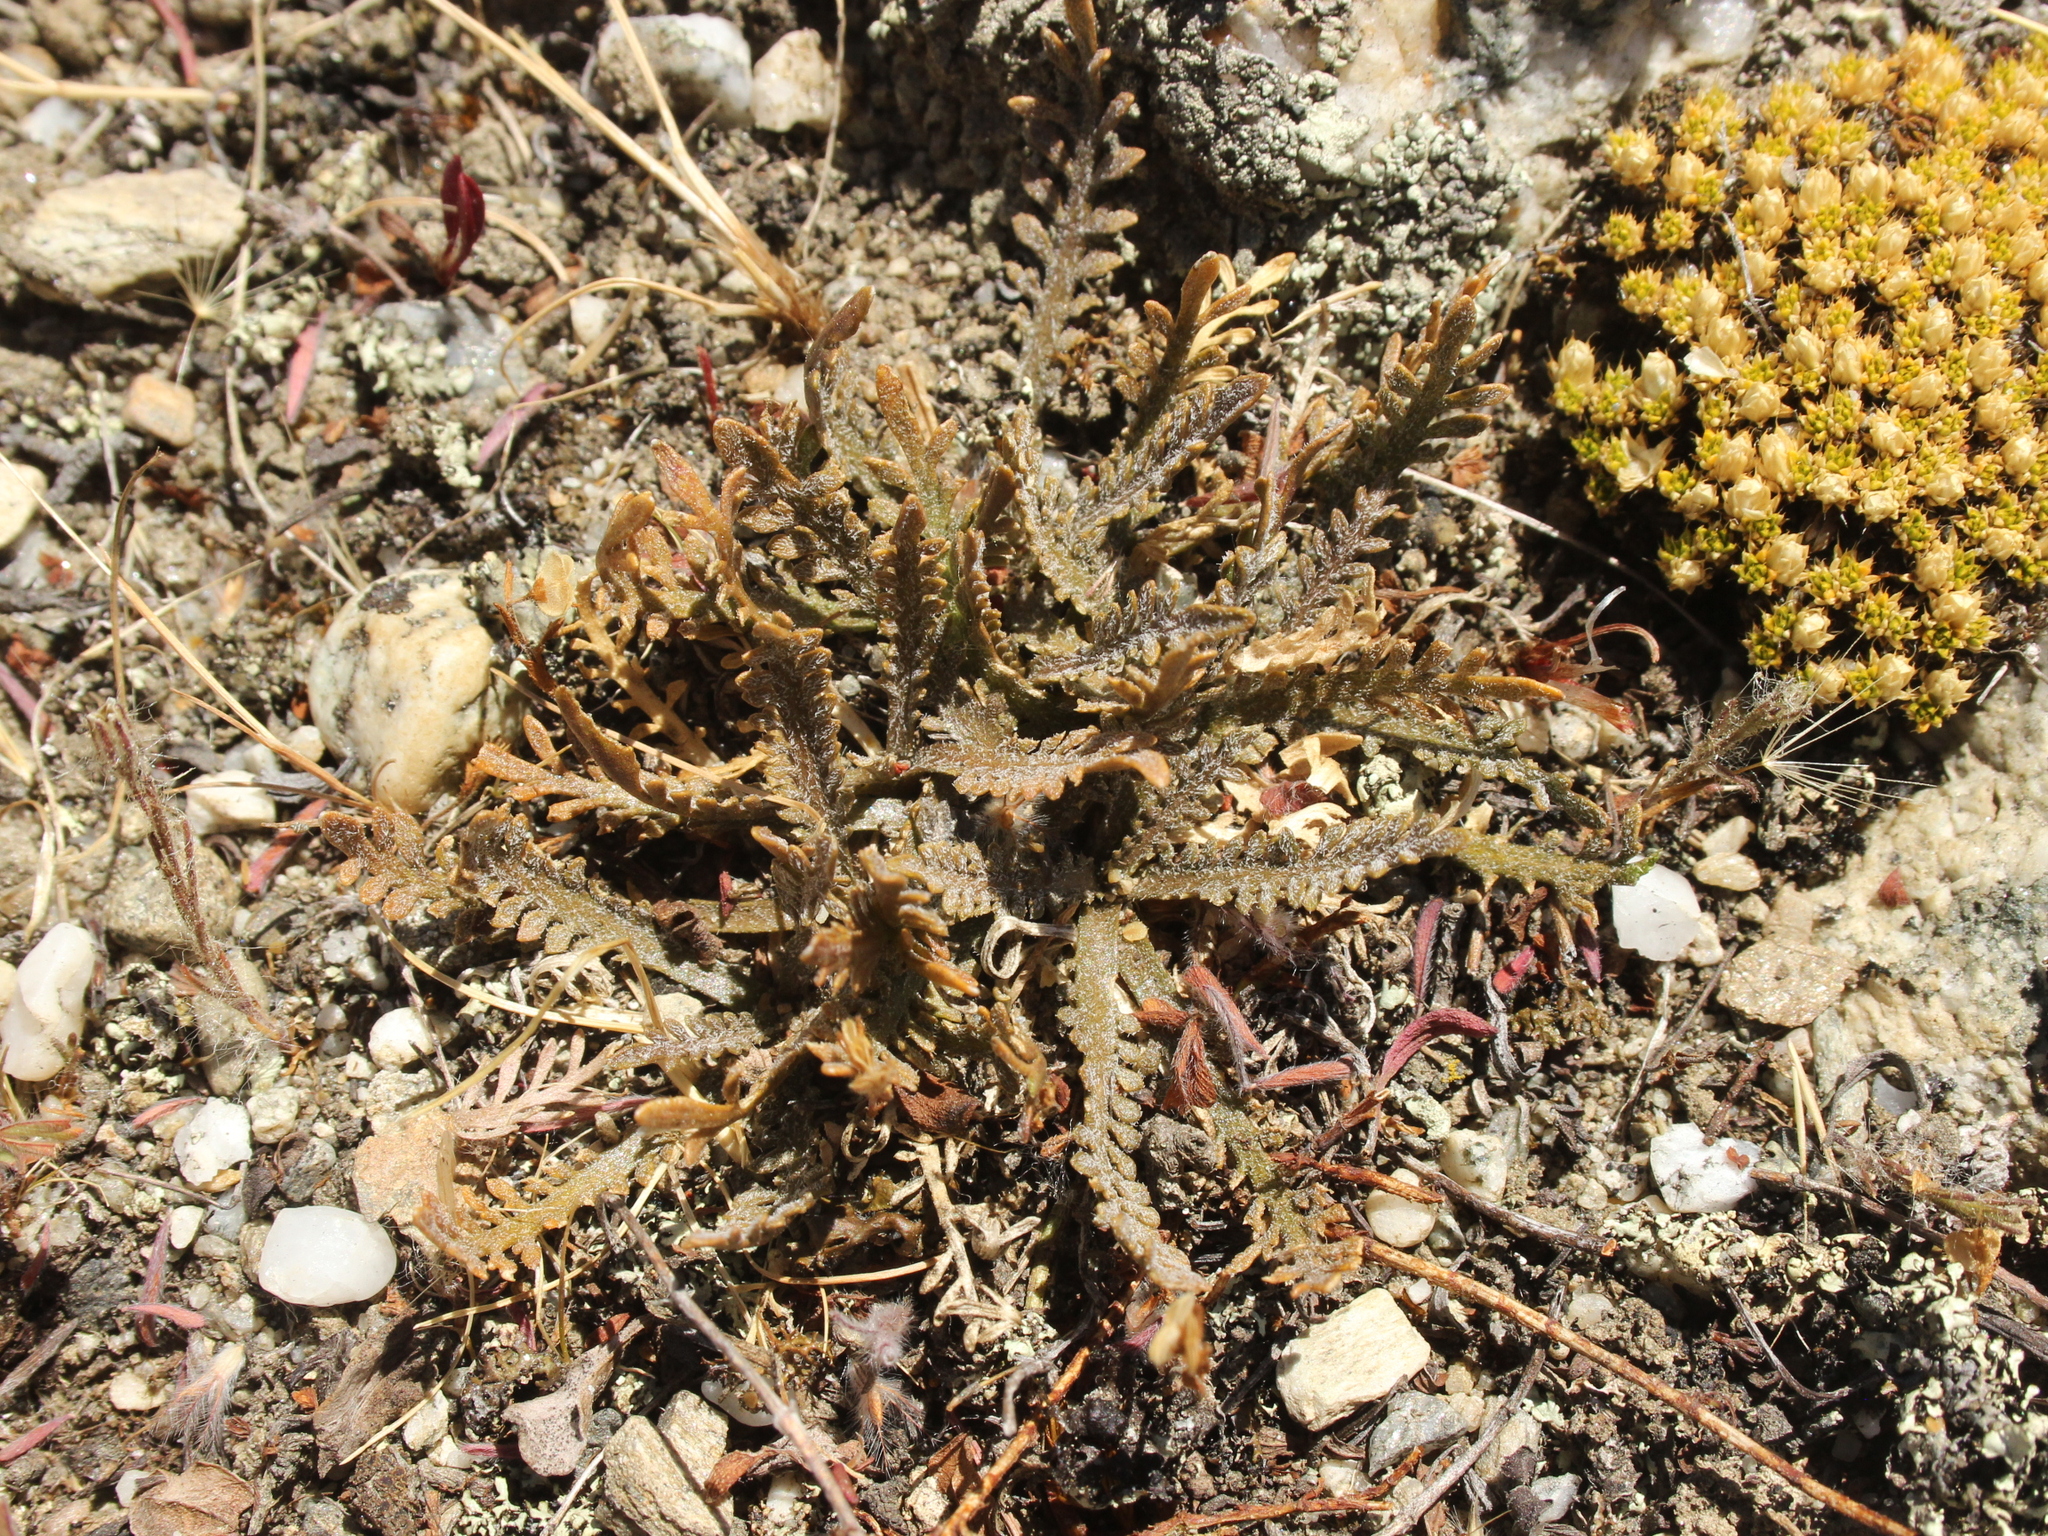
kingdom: Plantae
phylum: Tracheophyta
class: Magnoliopsida
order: Brassicales
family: Brassicaceae
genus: Lepidium
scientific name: Lepidium sisymbrioides
